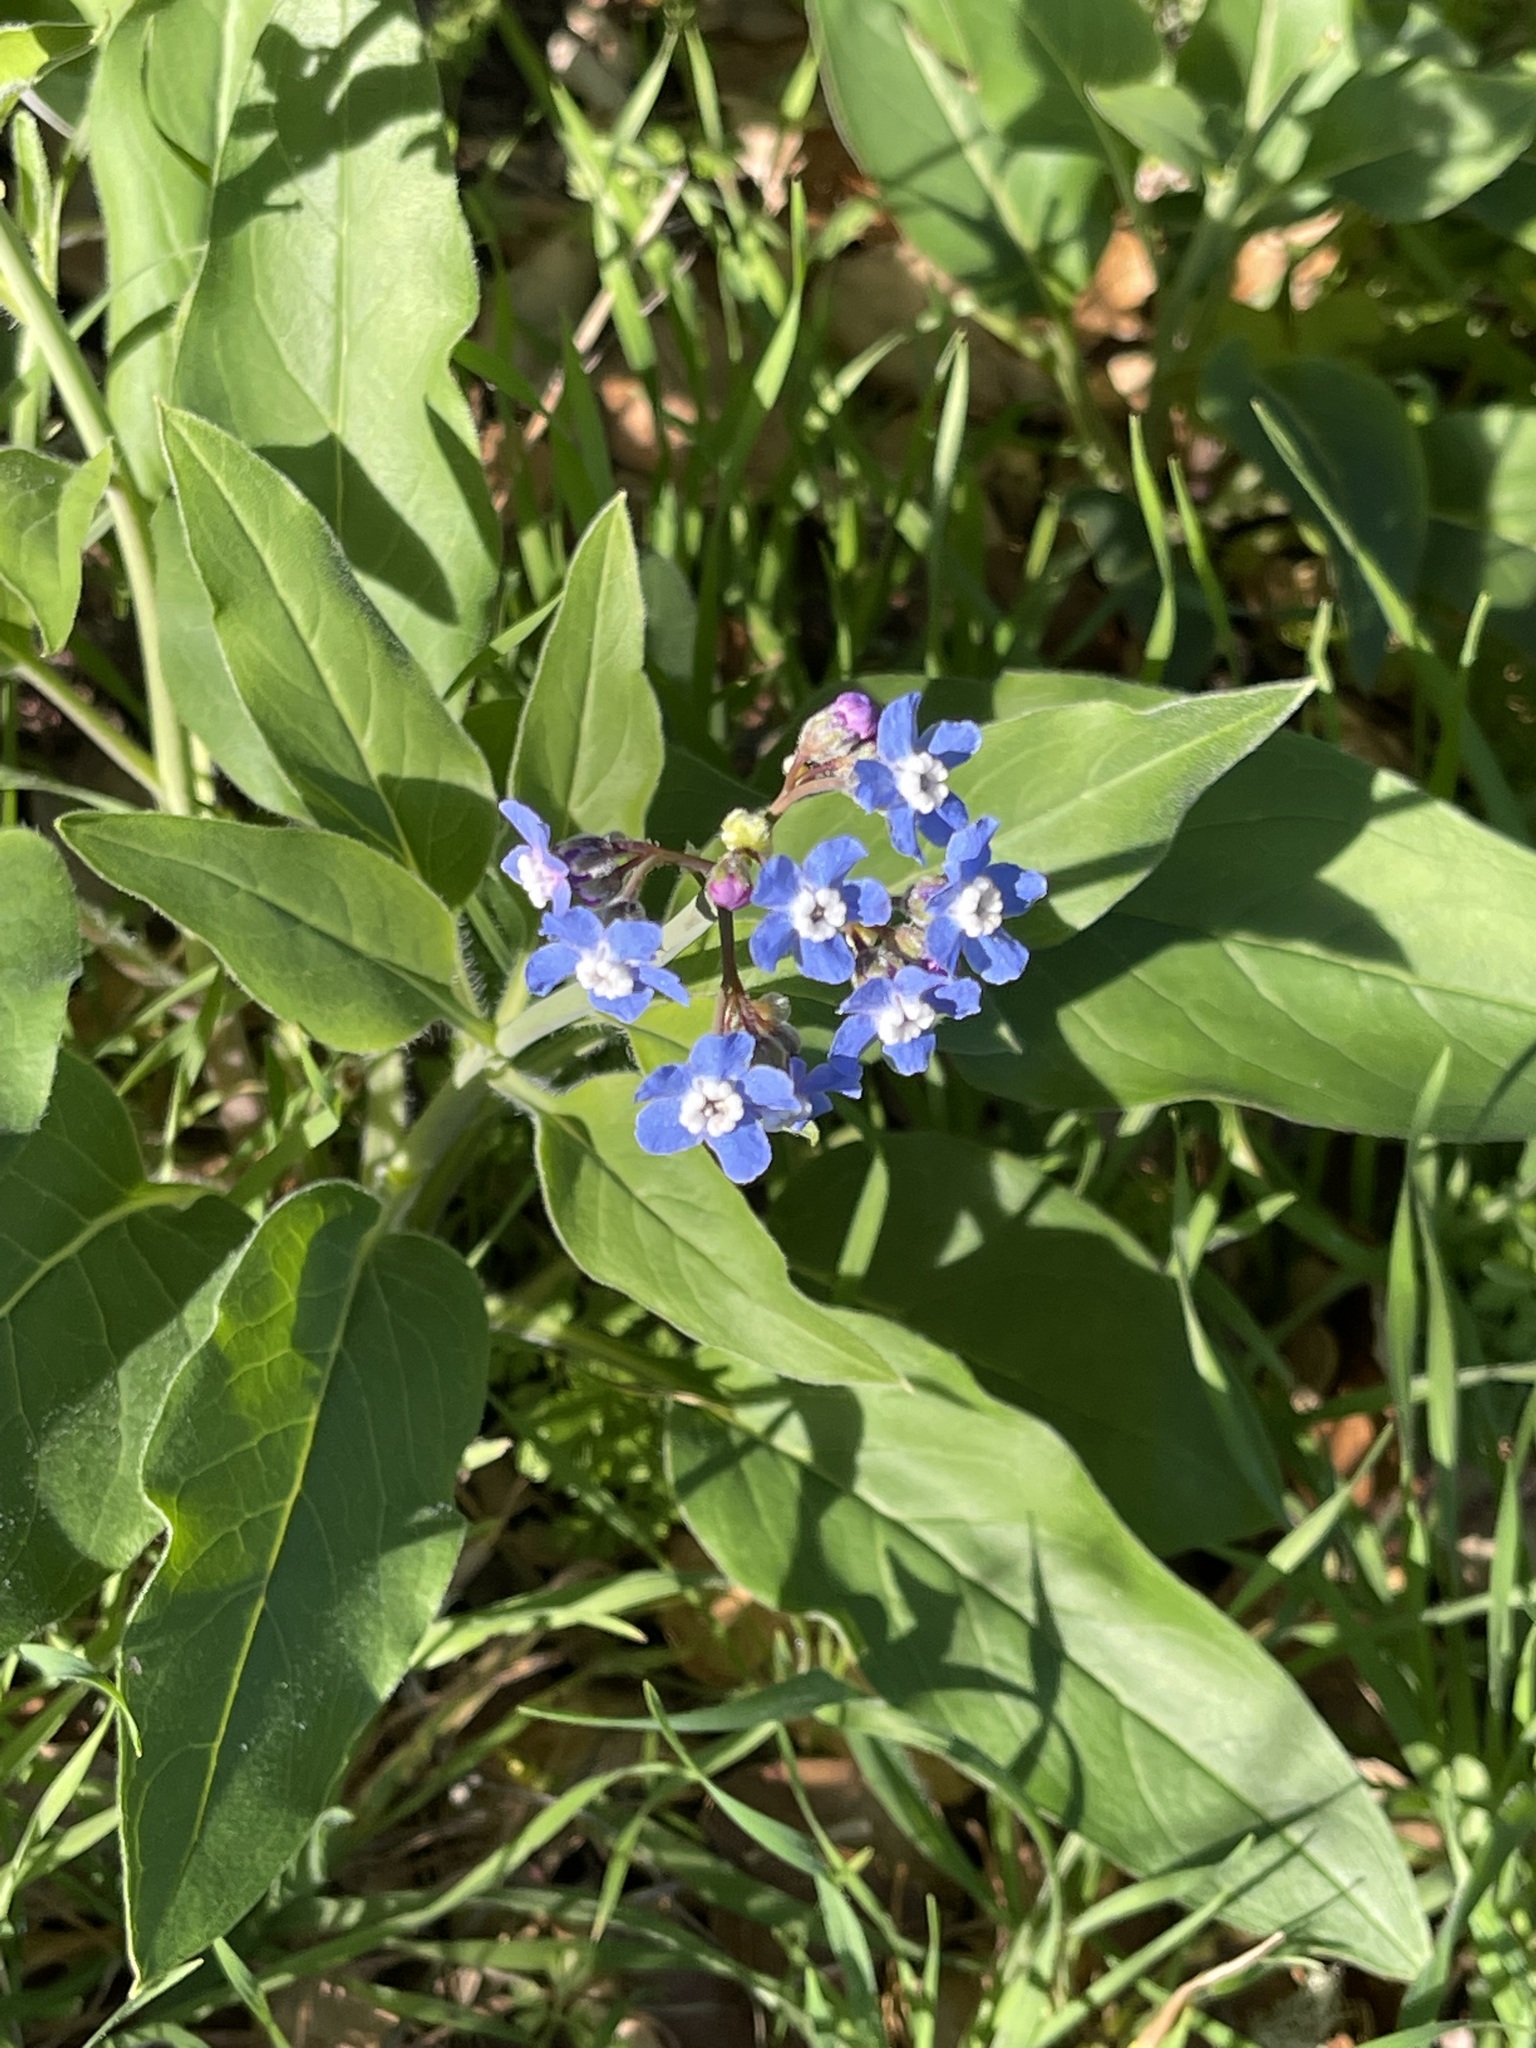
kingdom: Plantae
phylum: Tracheophyta
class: Magnoliopsida
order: Boraginales
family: Boraginaceae
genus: Adelinia
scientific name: Adelinia grande
